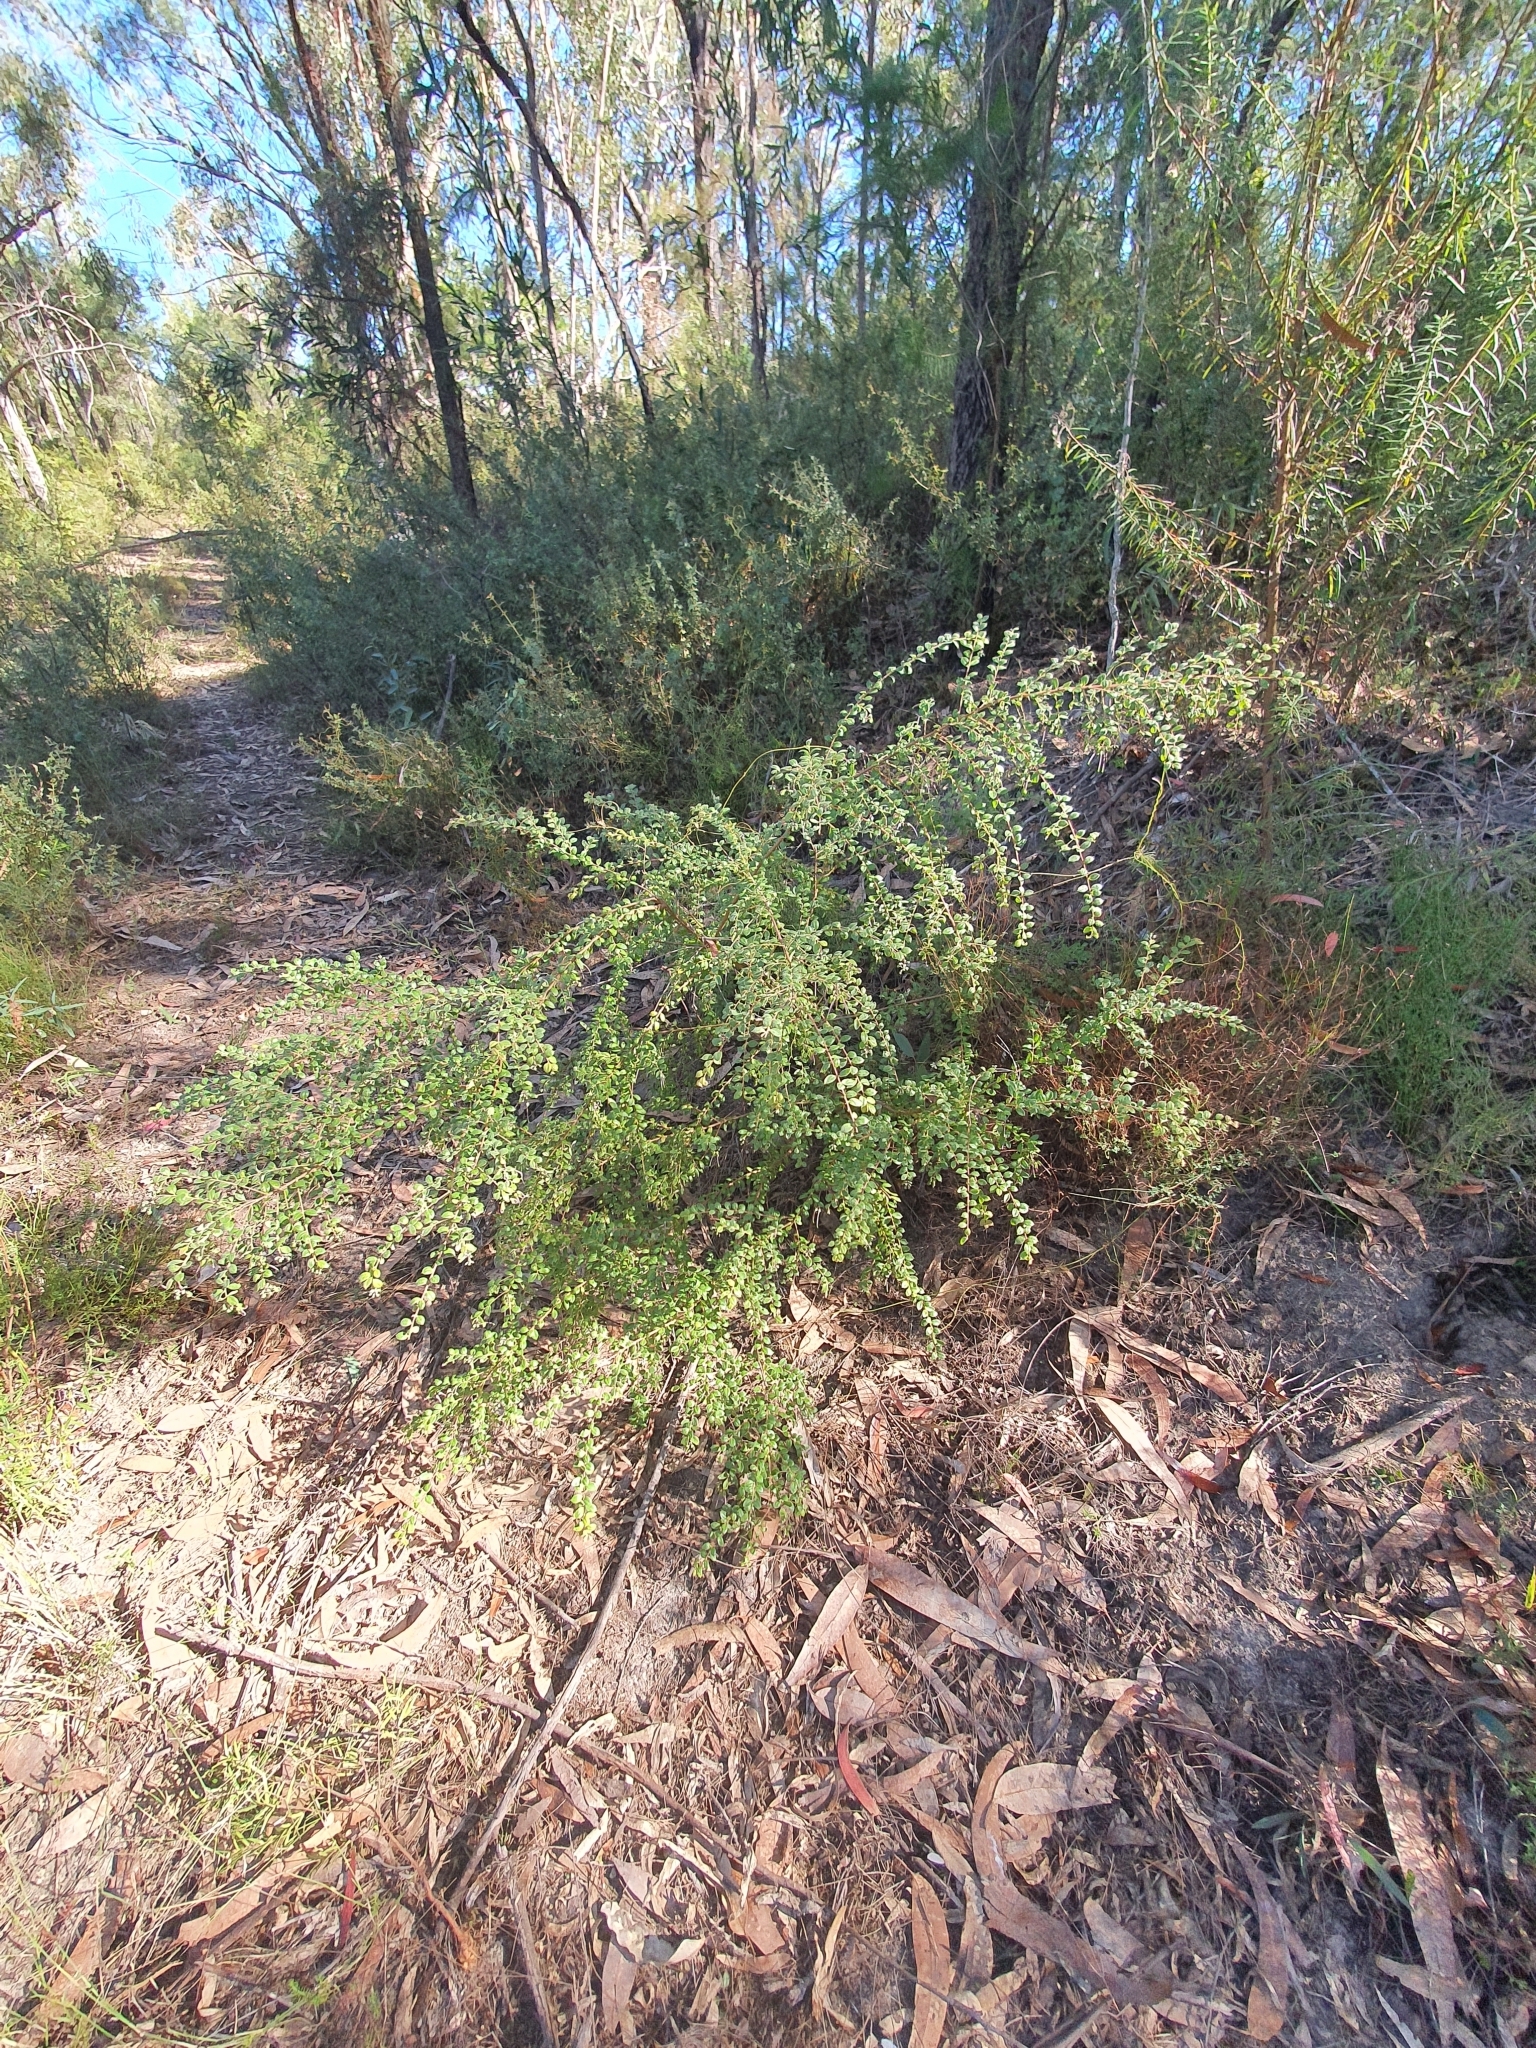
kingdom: Plantae
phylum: Tracheophyta
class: Magnoliopsida
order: Proteales
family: Proteaceae
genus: Grevillea
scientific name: Grevillea mucronulata
